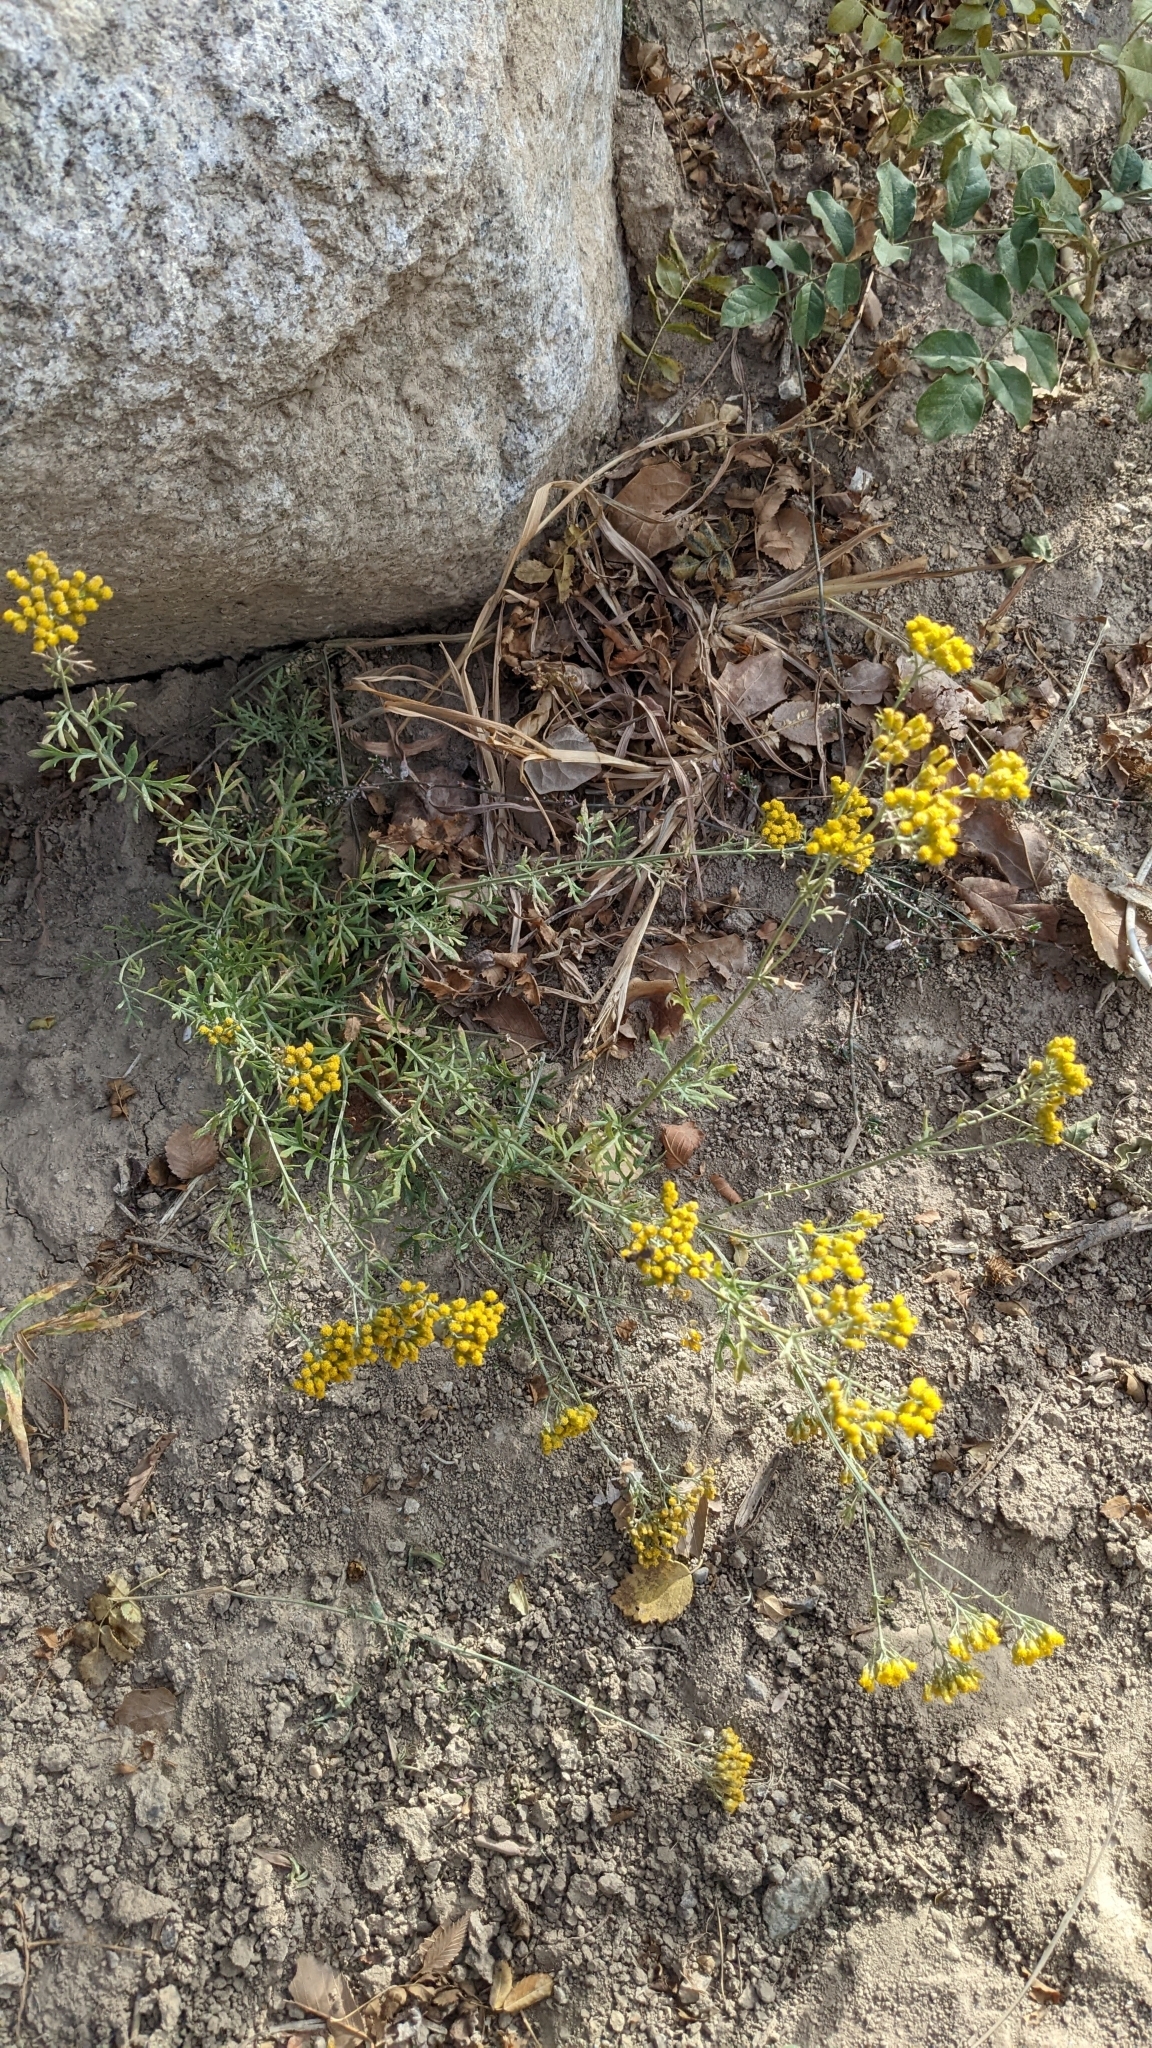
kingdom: Plantae
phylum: Tracheophyta
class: Magnoliopsida
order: Asterales
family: Asteraceae
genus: Ajania
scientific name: Ajania fastigiata
